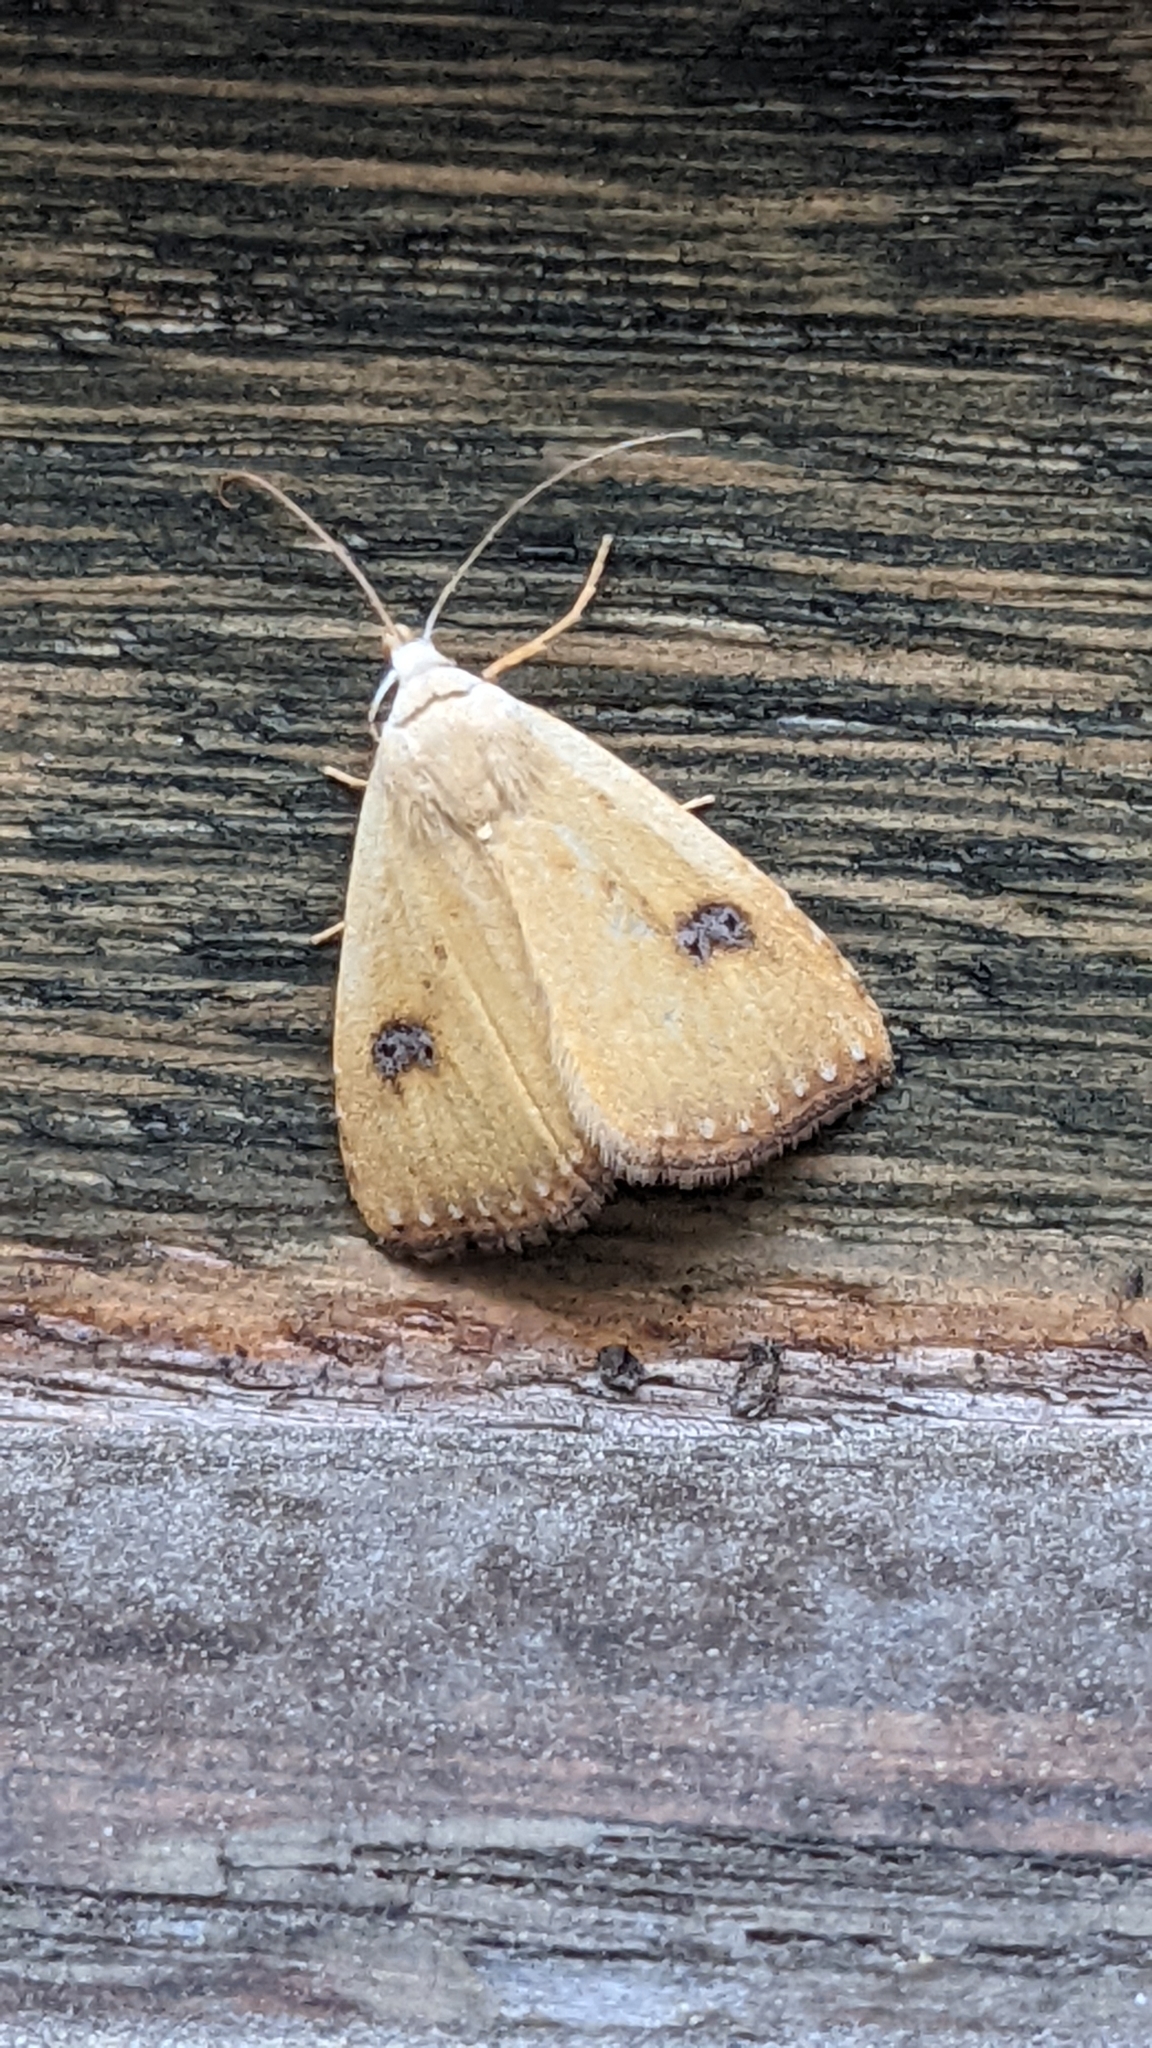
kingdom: Animalia
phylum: Arthropoda
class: Insecta
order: Lepidoptera
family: Erebidae
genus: Rivula
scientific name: Rivula sericealis
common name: Straw dot
